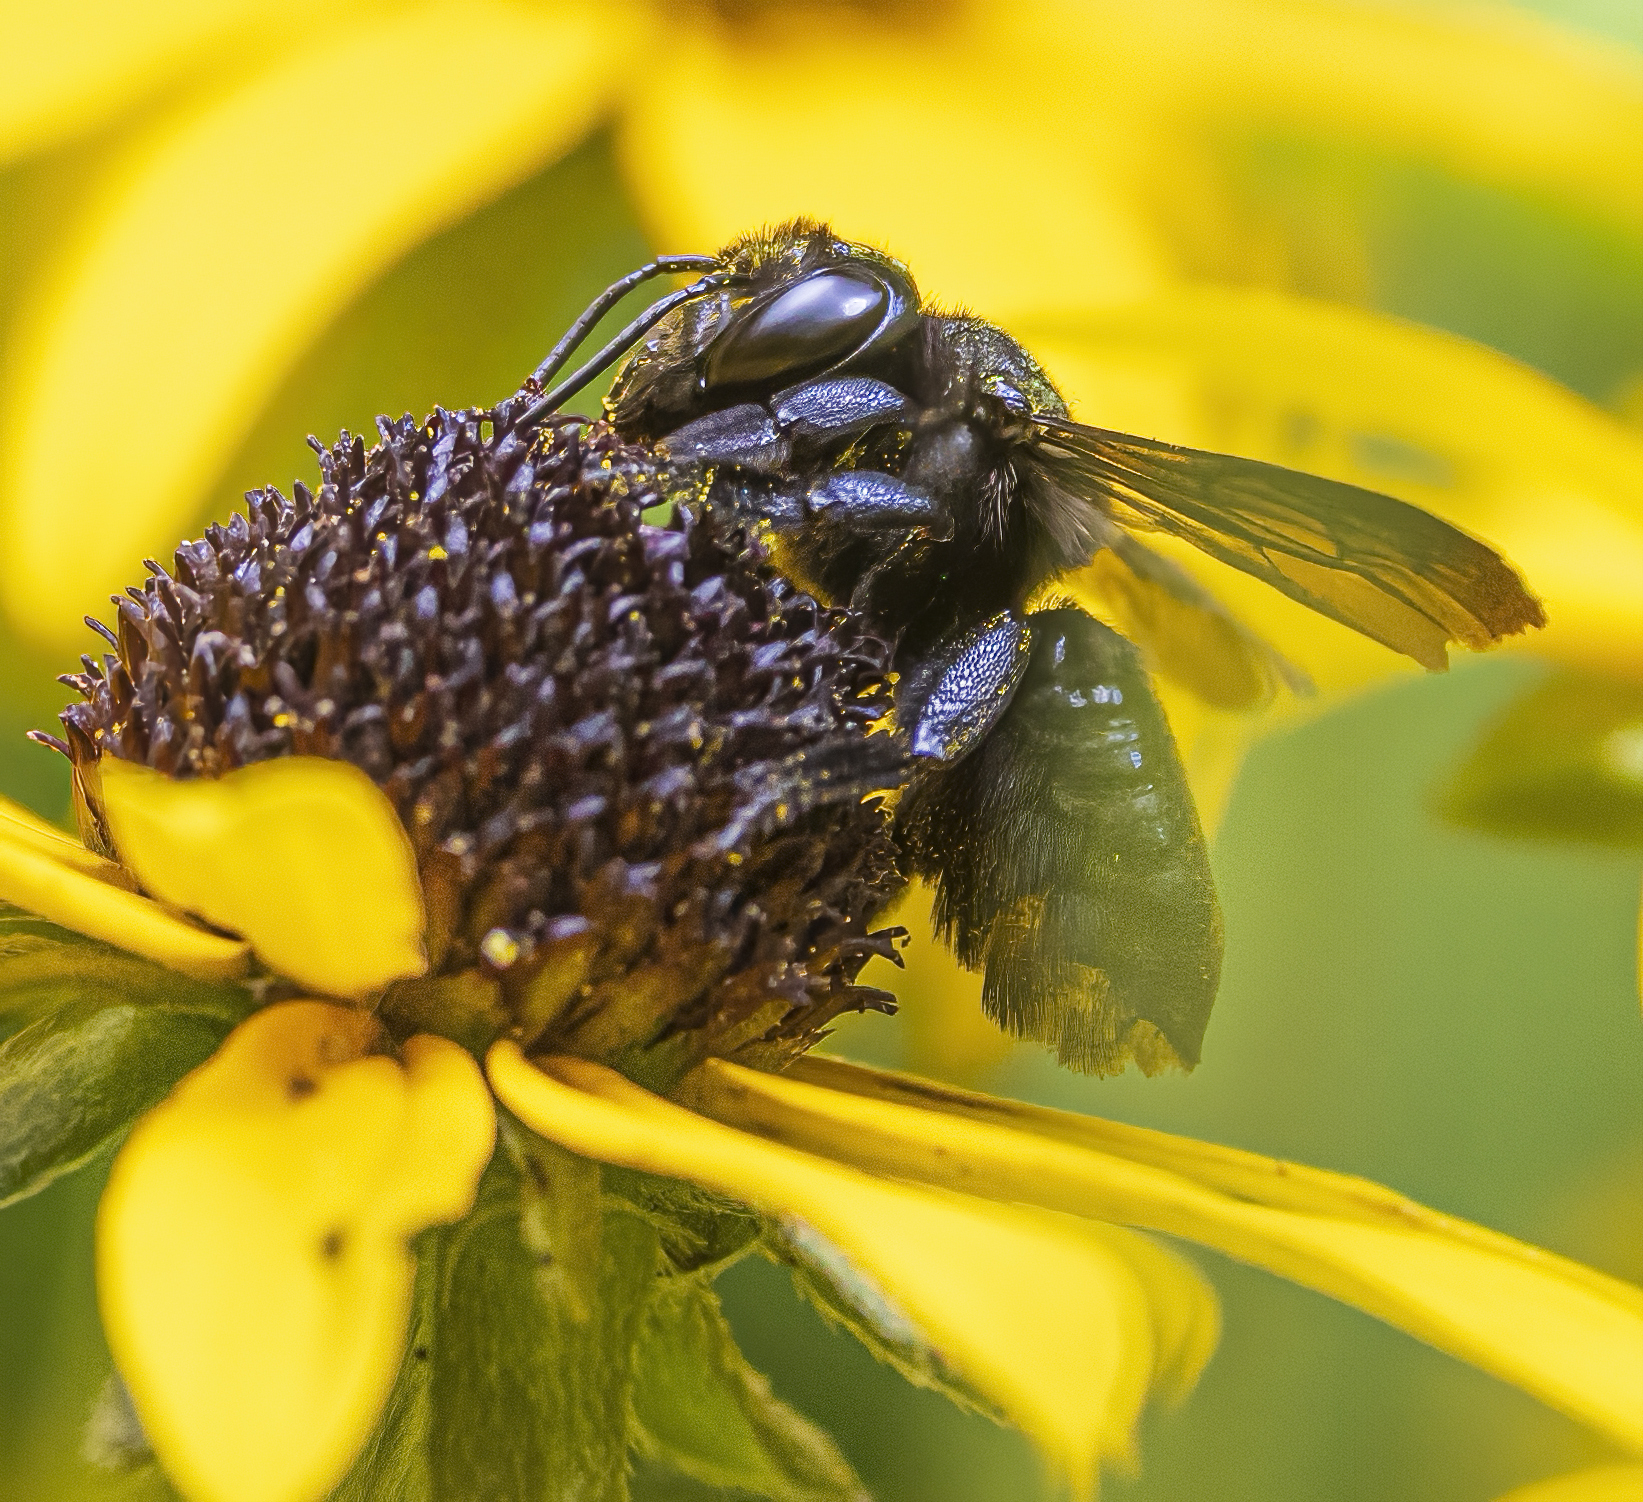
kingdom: Animalia
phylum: Arthropoda
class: Insecta
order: Hymenoptera
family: Megachilidae
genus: Megachile
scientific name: Megachile xylocopoides
